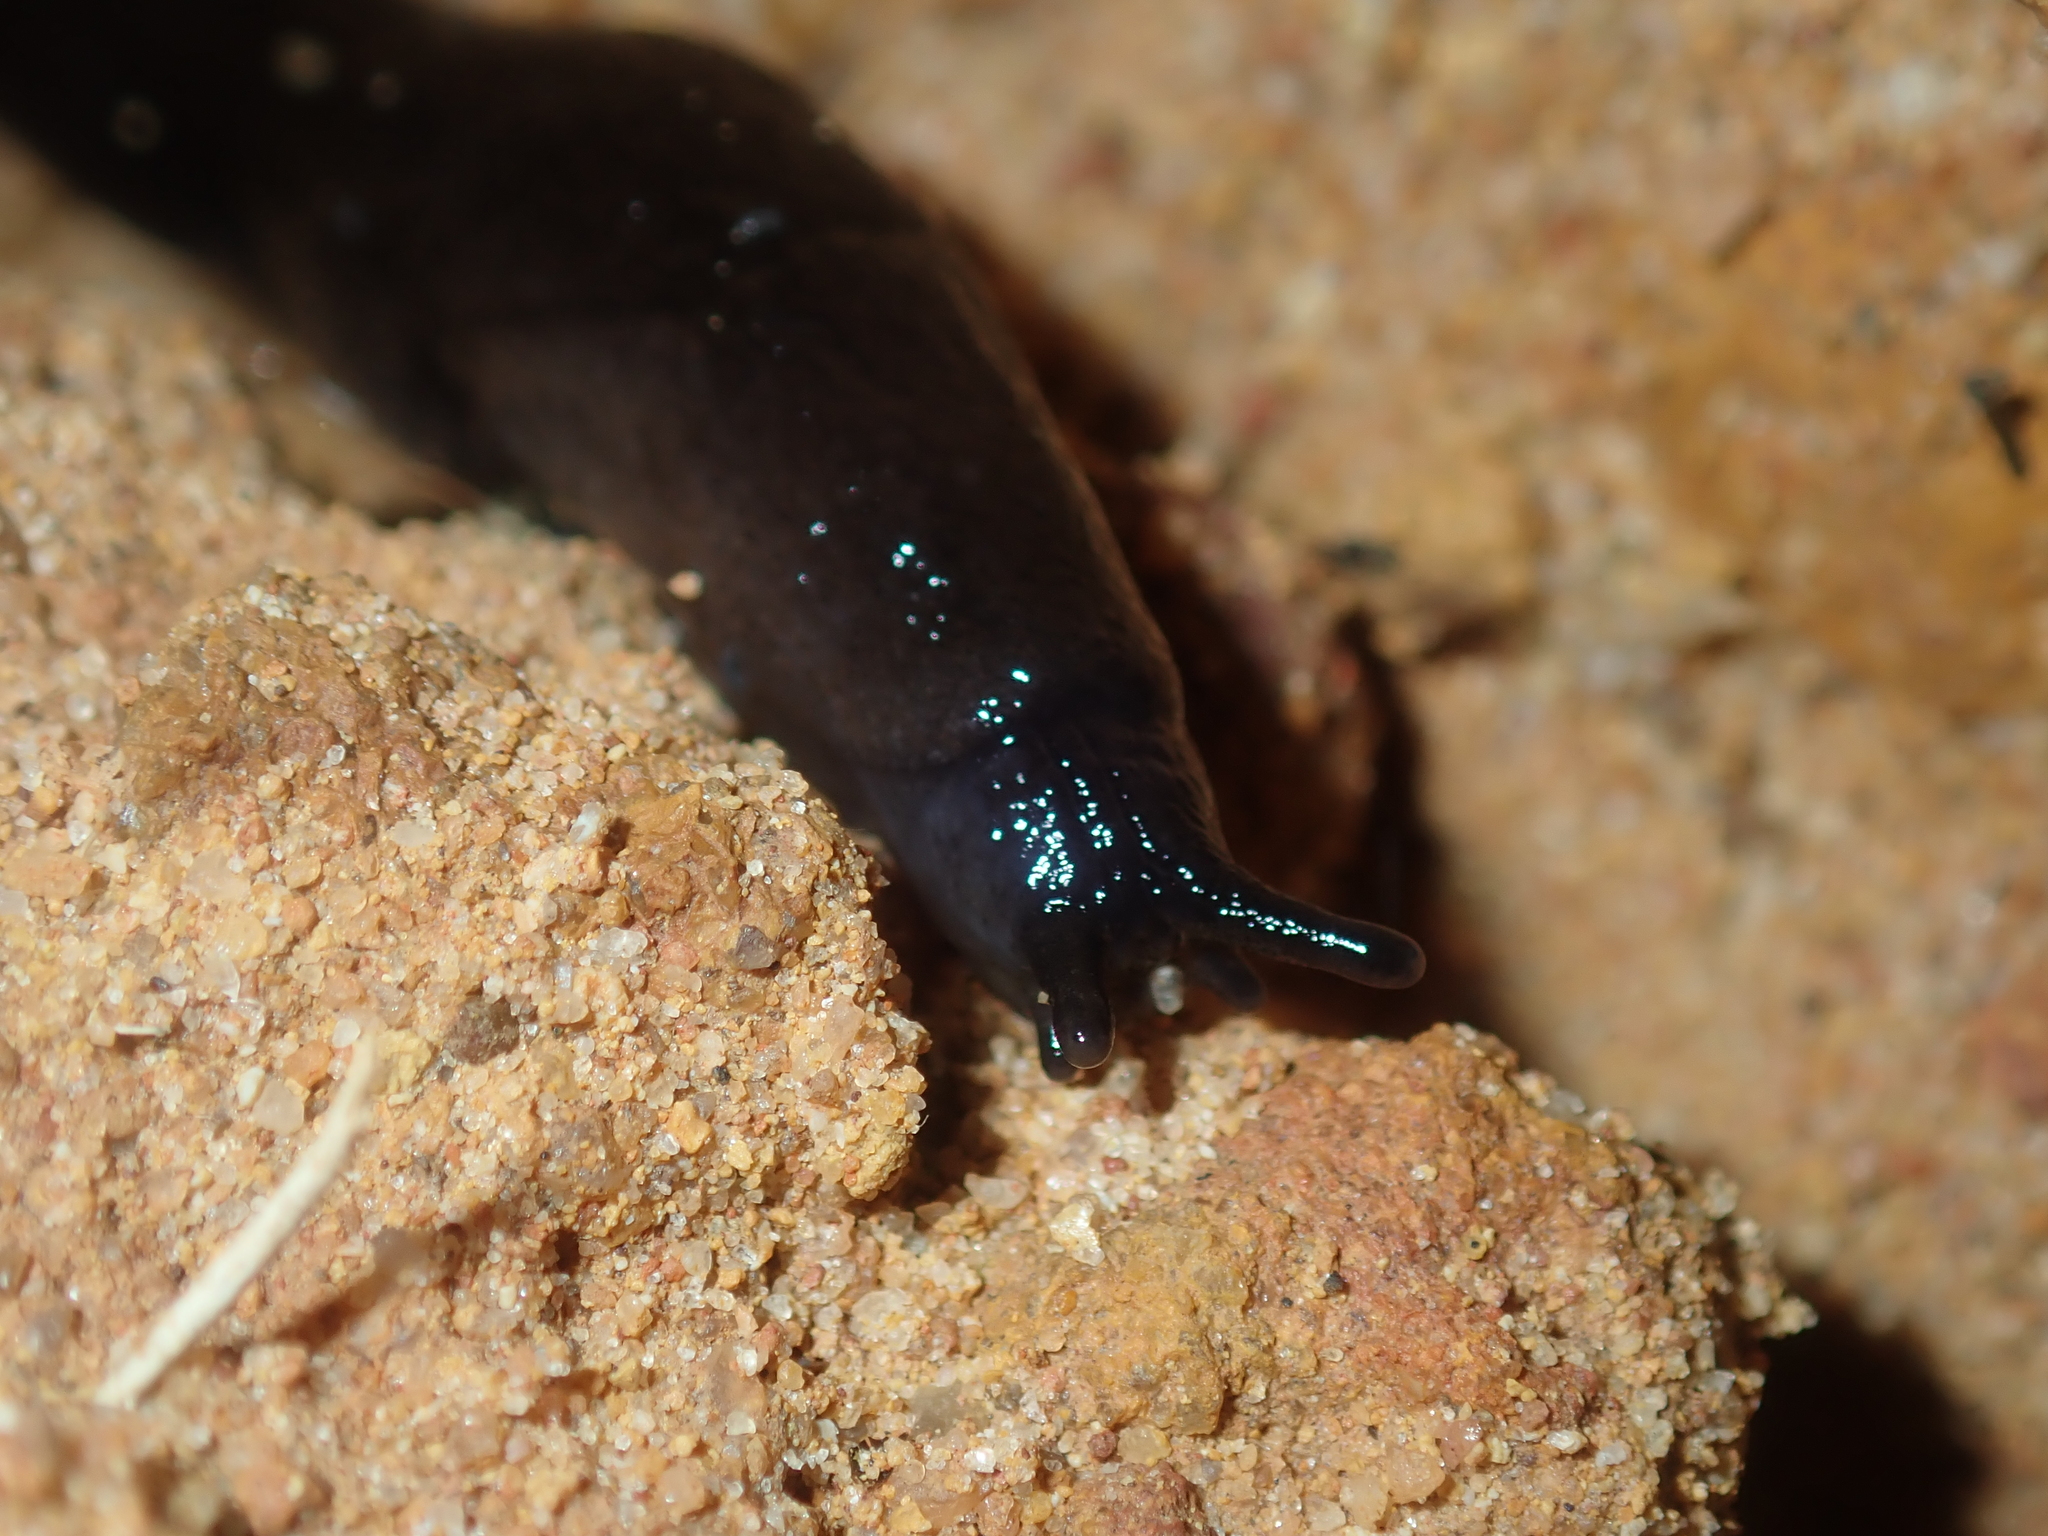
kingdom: Animalia
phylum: Mollusca
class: Gastropoda
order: Stylommatophora
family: Milacidae
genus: Milax
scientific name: Milax gagates
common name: Greenhouse slug
